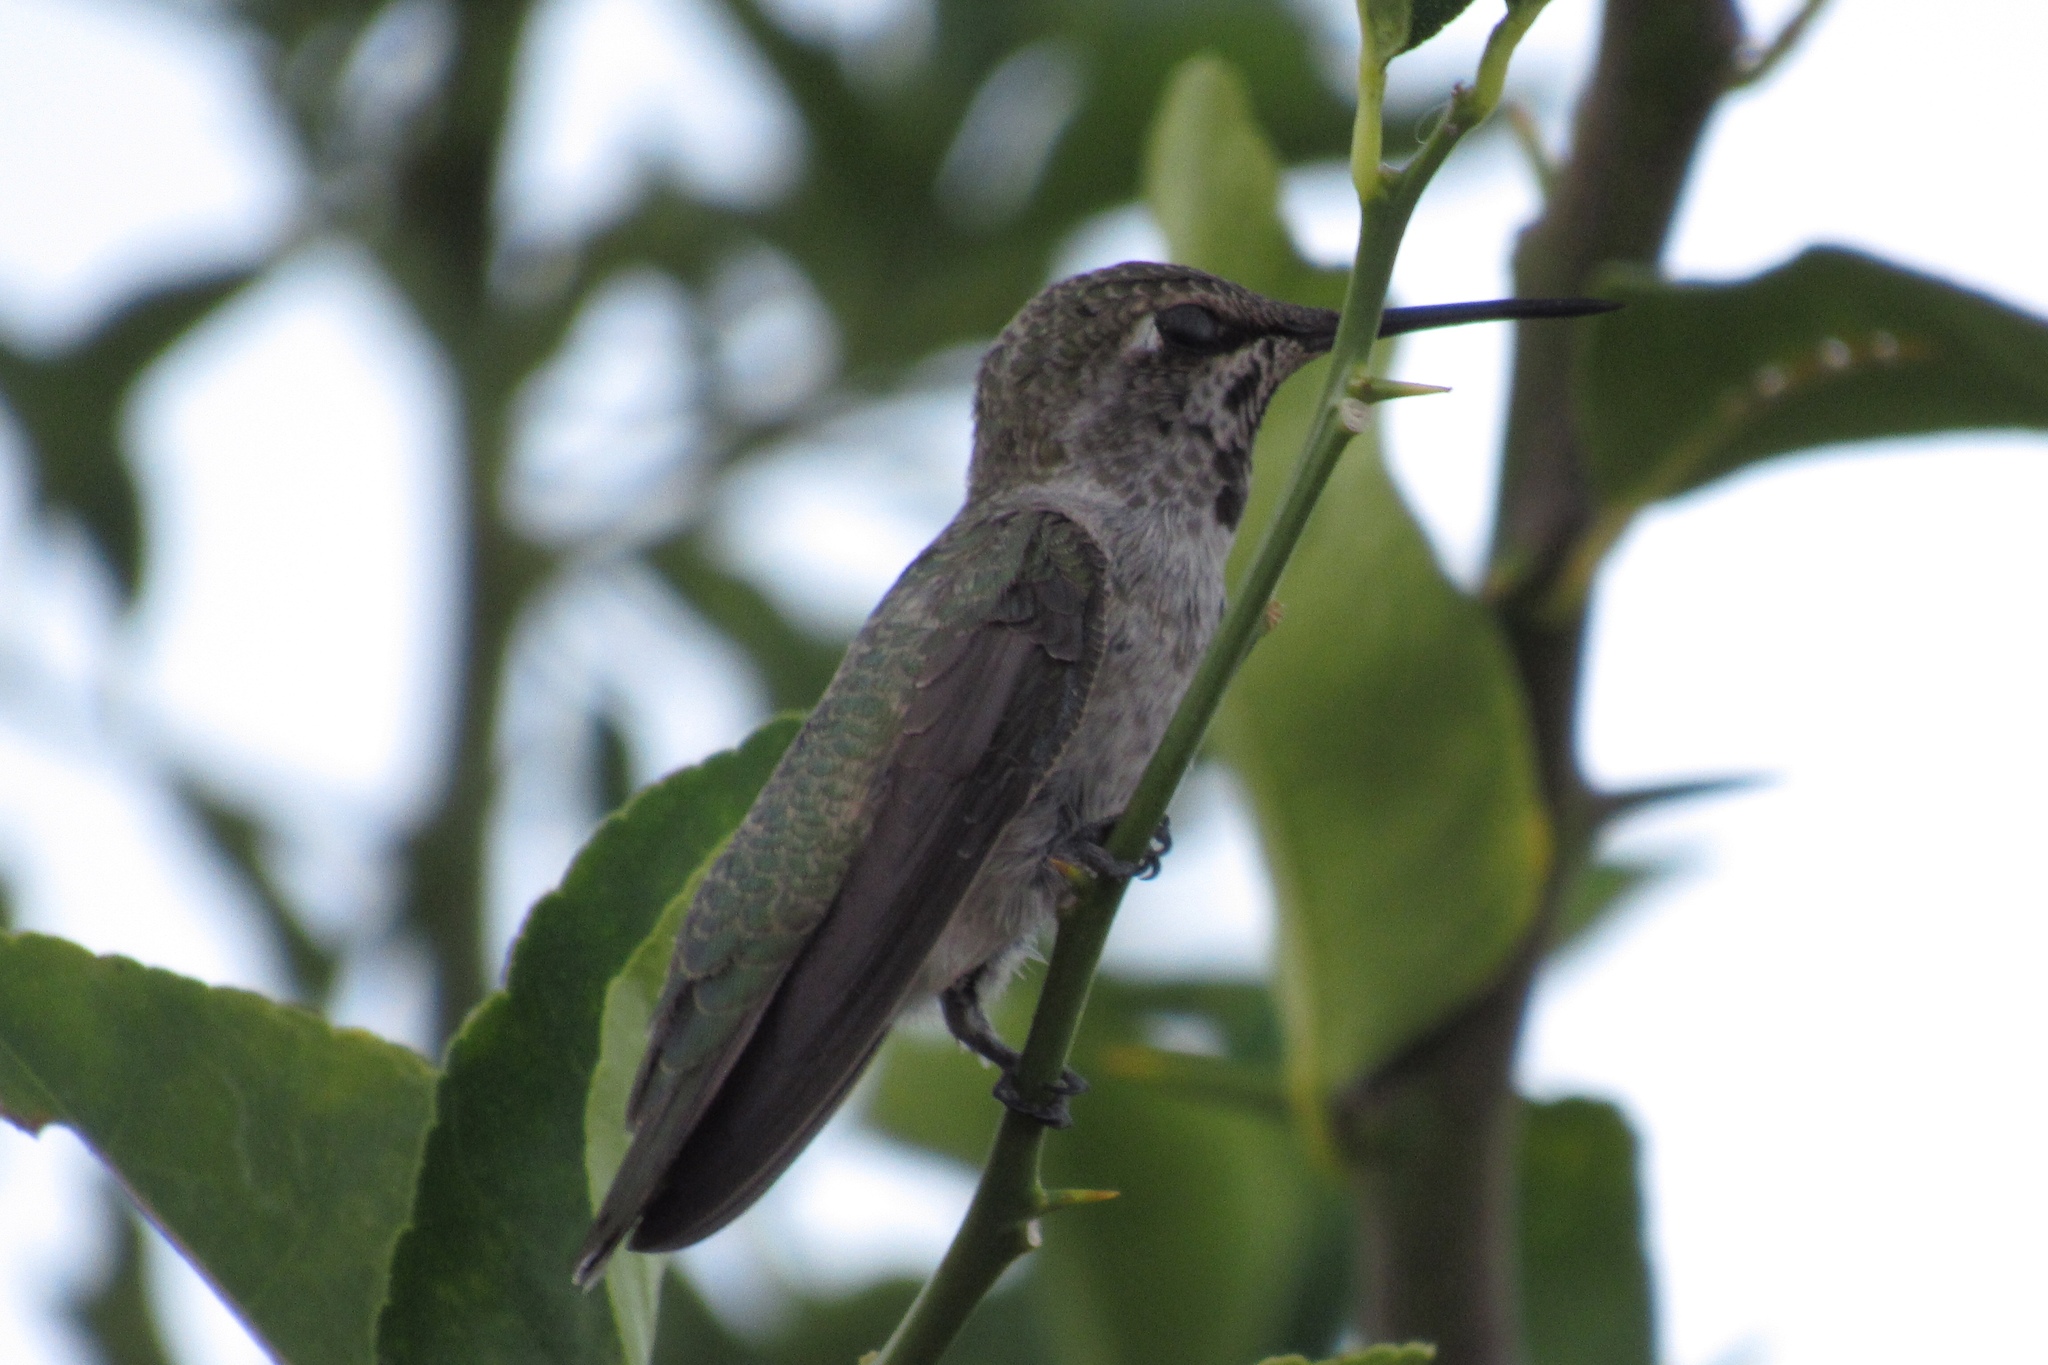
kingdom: Animalia
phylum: Chordata
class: Aves
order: Apodiformes
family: Trochilidae
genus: Calypte
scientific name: Calypte anna
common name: Anna's hummingbird
